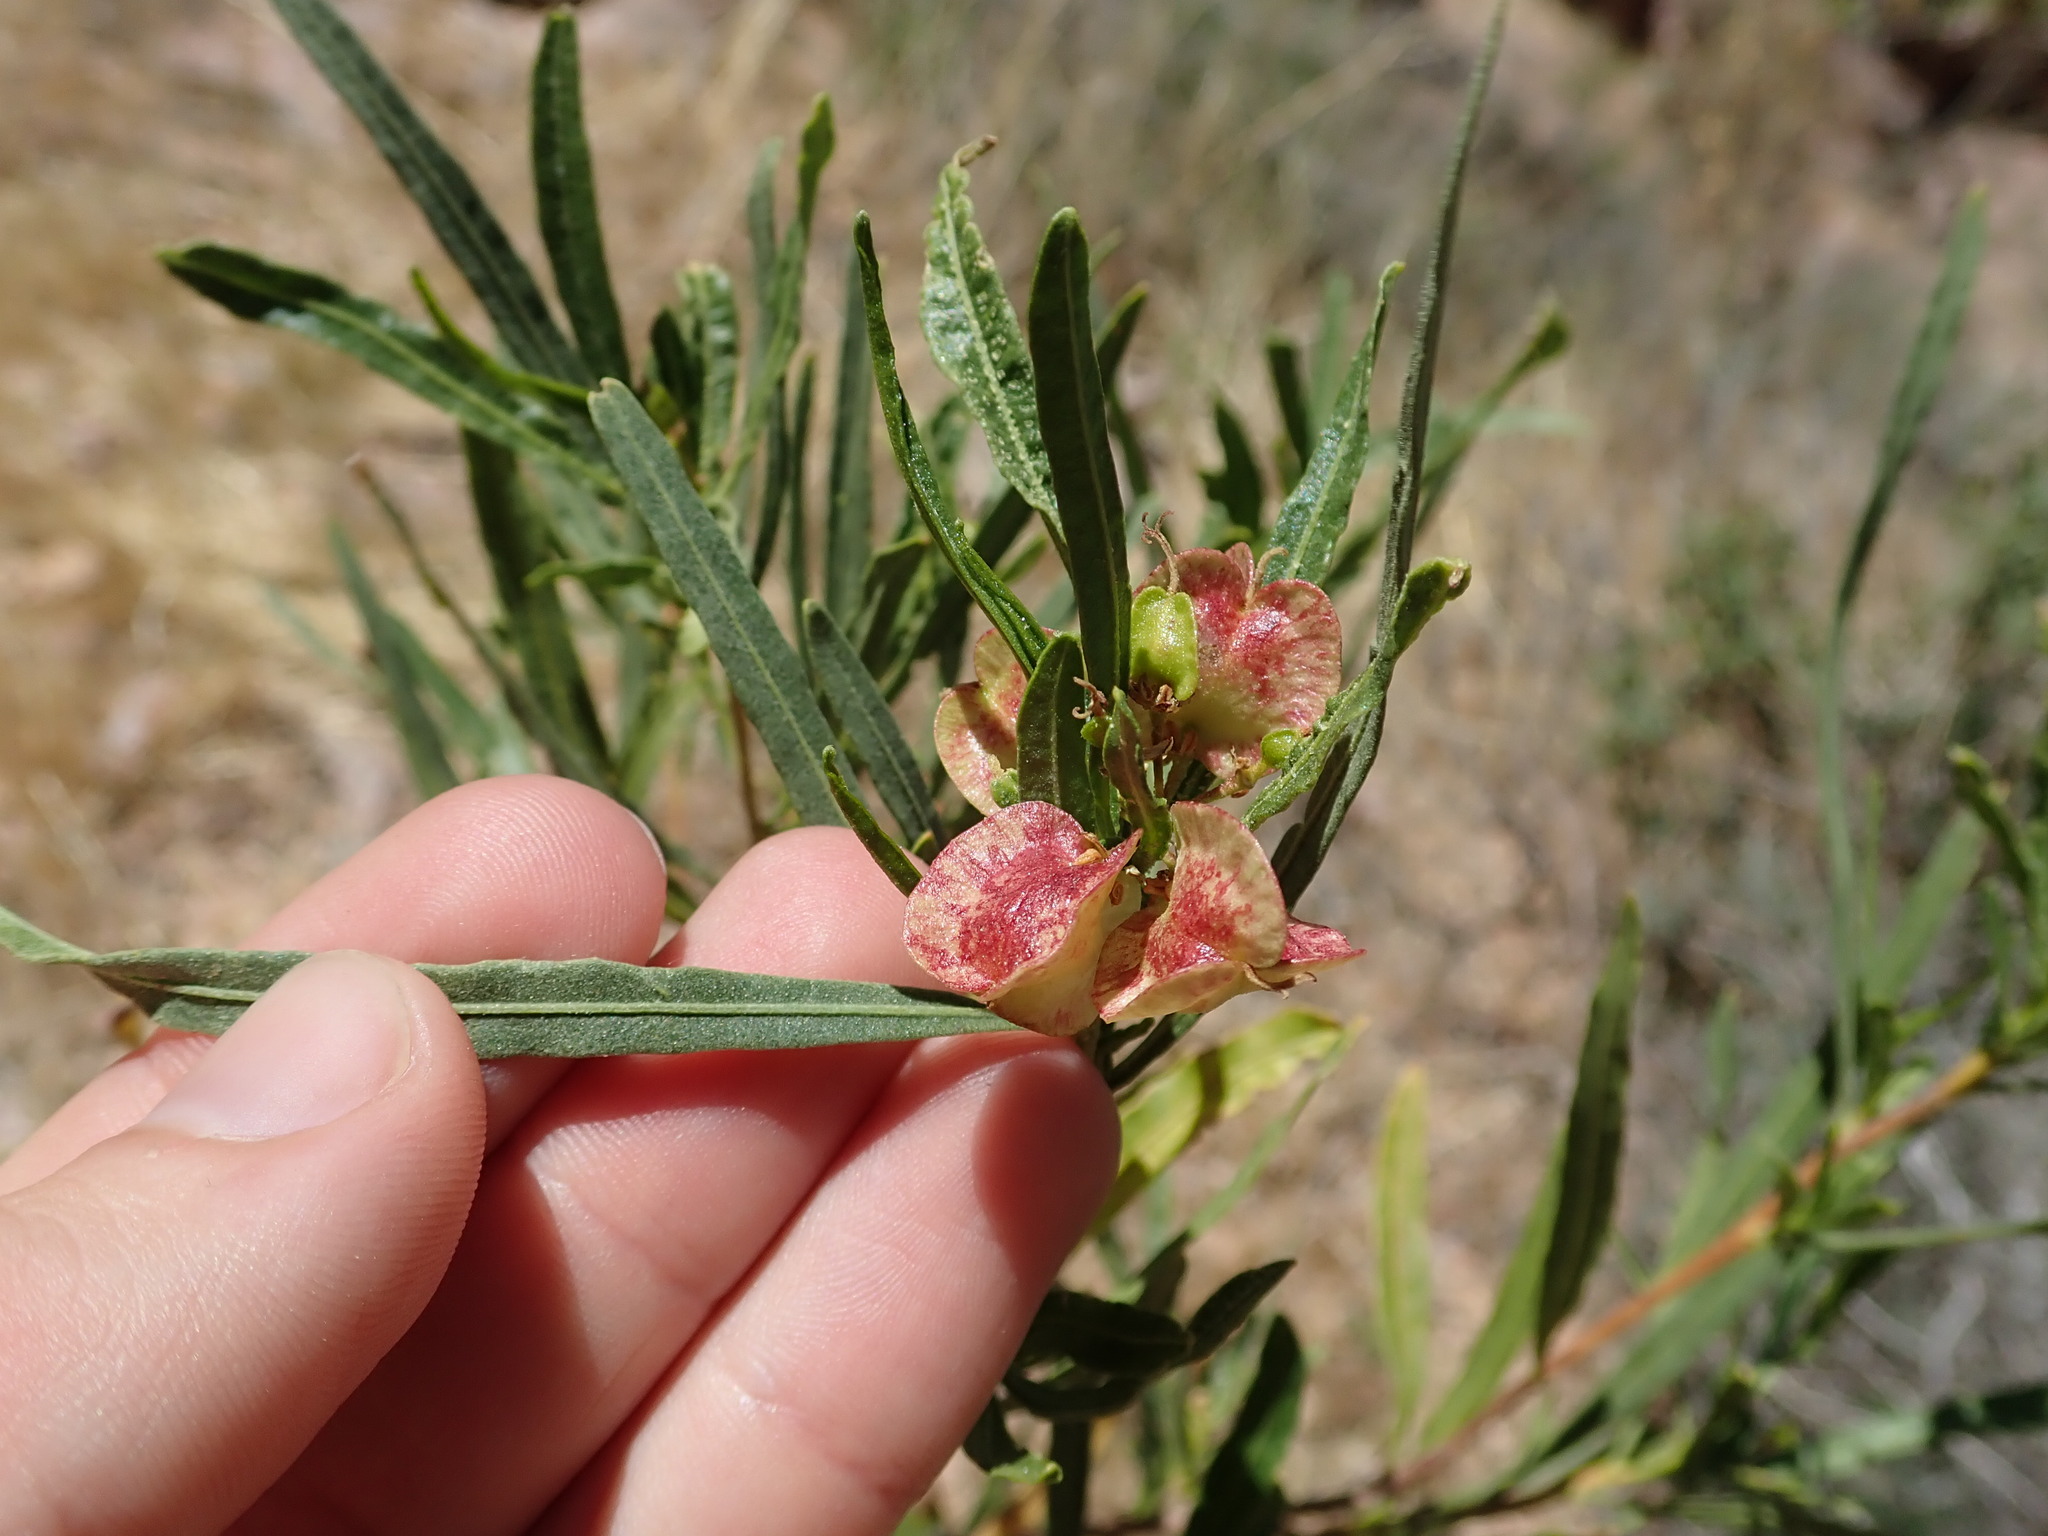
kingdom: Plantae
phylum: Tracheophyta
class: Magnoliopsida
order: Sapindales
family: Sapindaceae
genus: Dodonaea
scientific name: Dodonaea viscosa
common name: Hopbush
